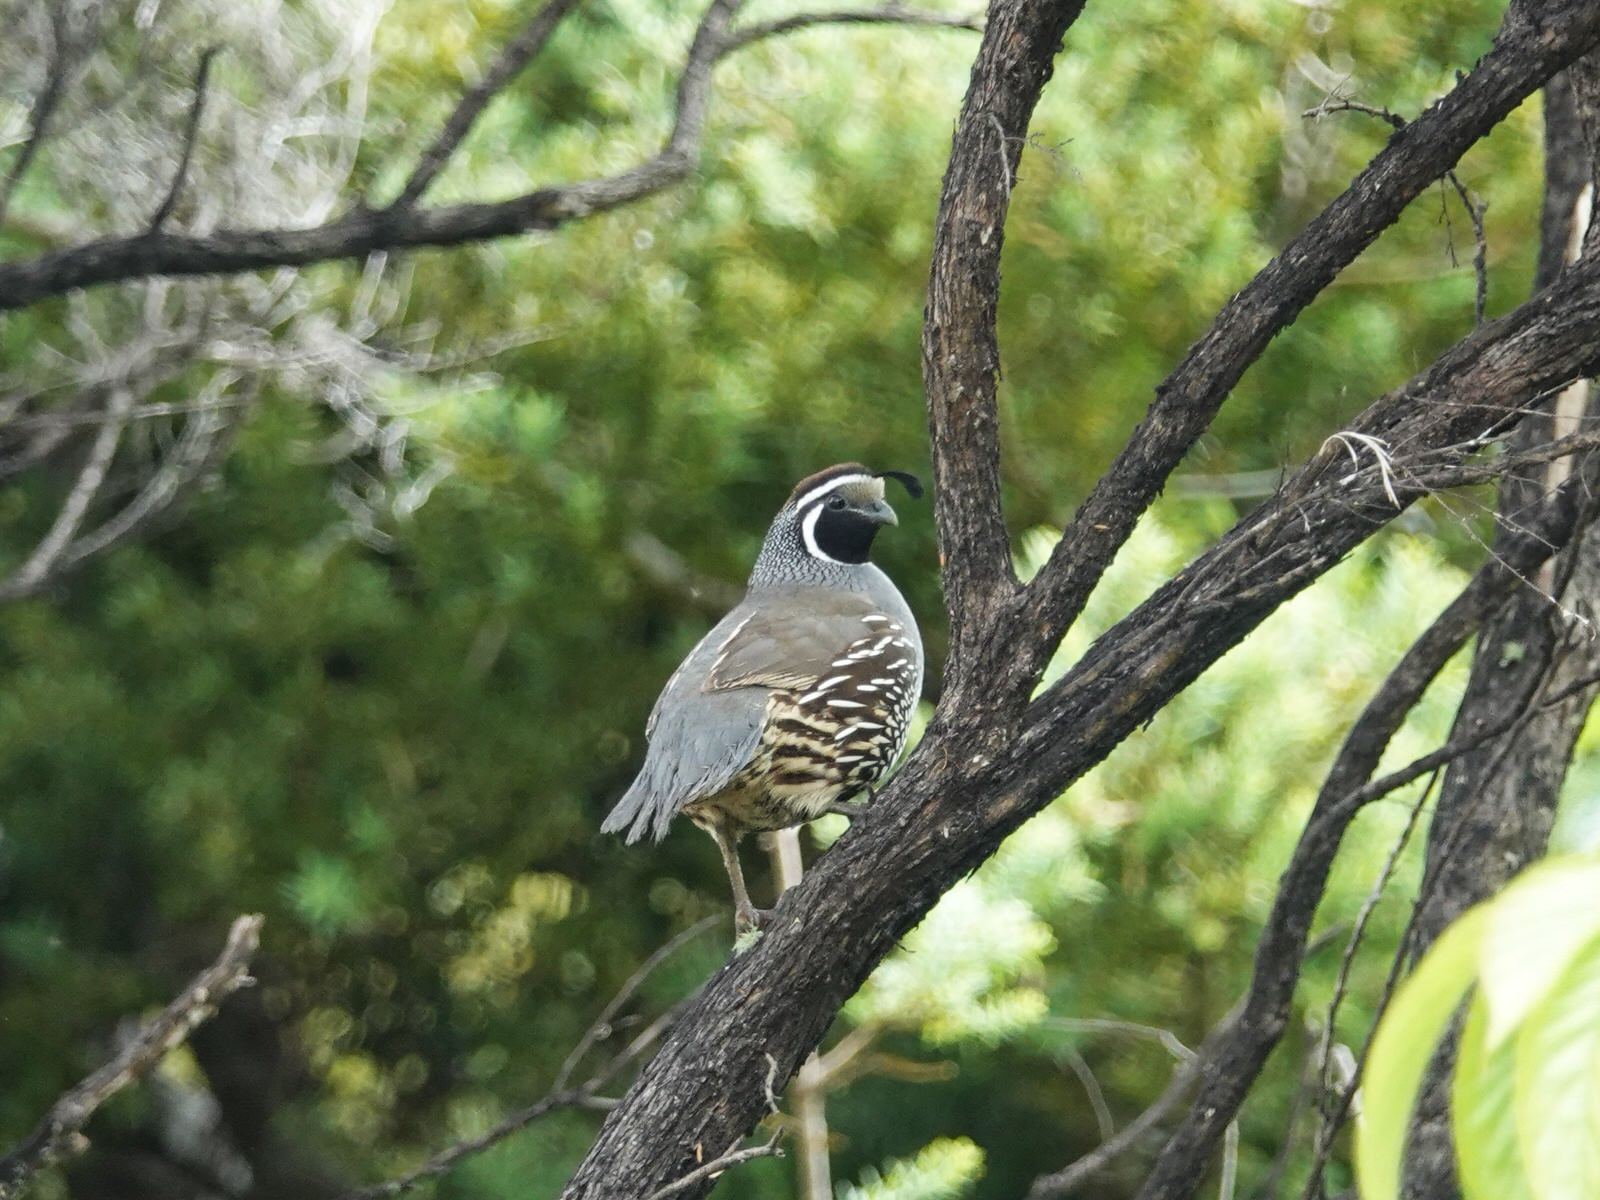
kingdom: Animalia
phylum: Chordata
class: Aves
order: Galliformes
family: Odontophoridae
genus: Callipepla
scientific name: Callipepla californica
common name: California quail
